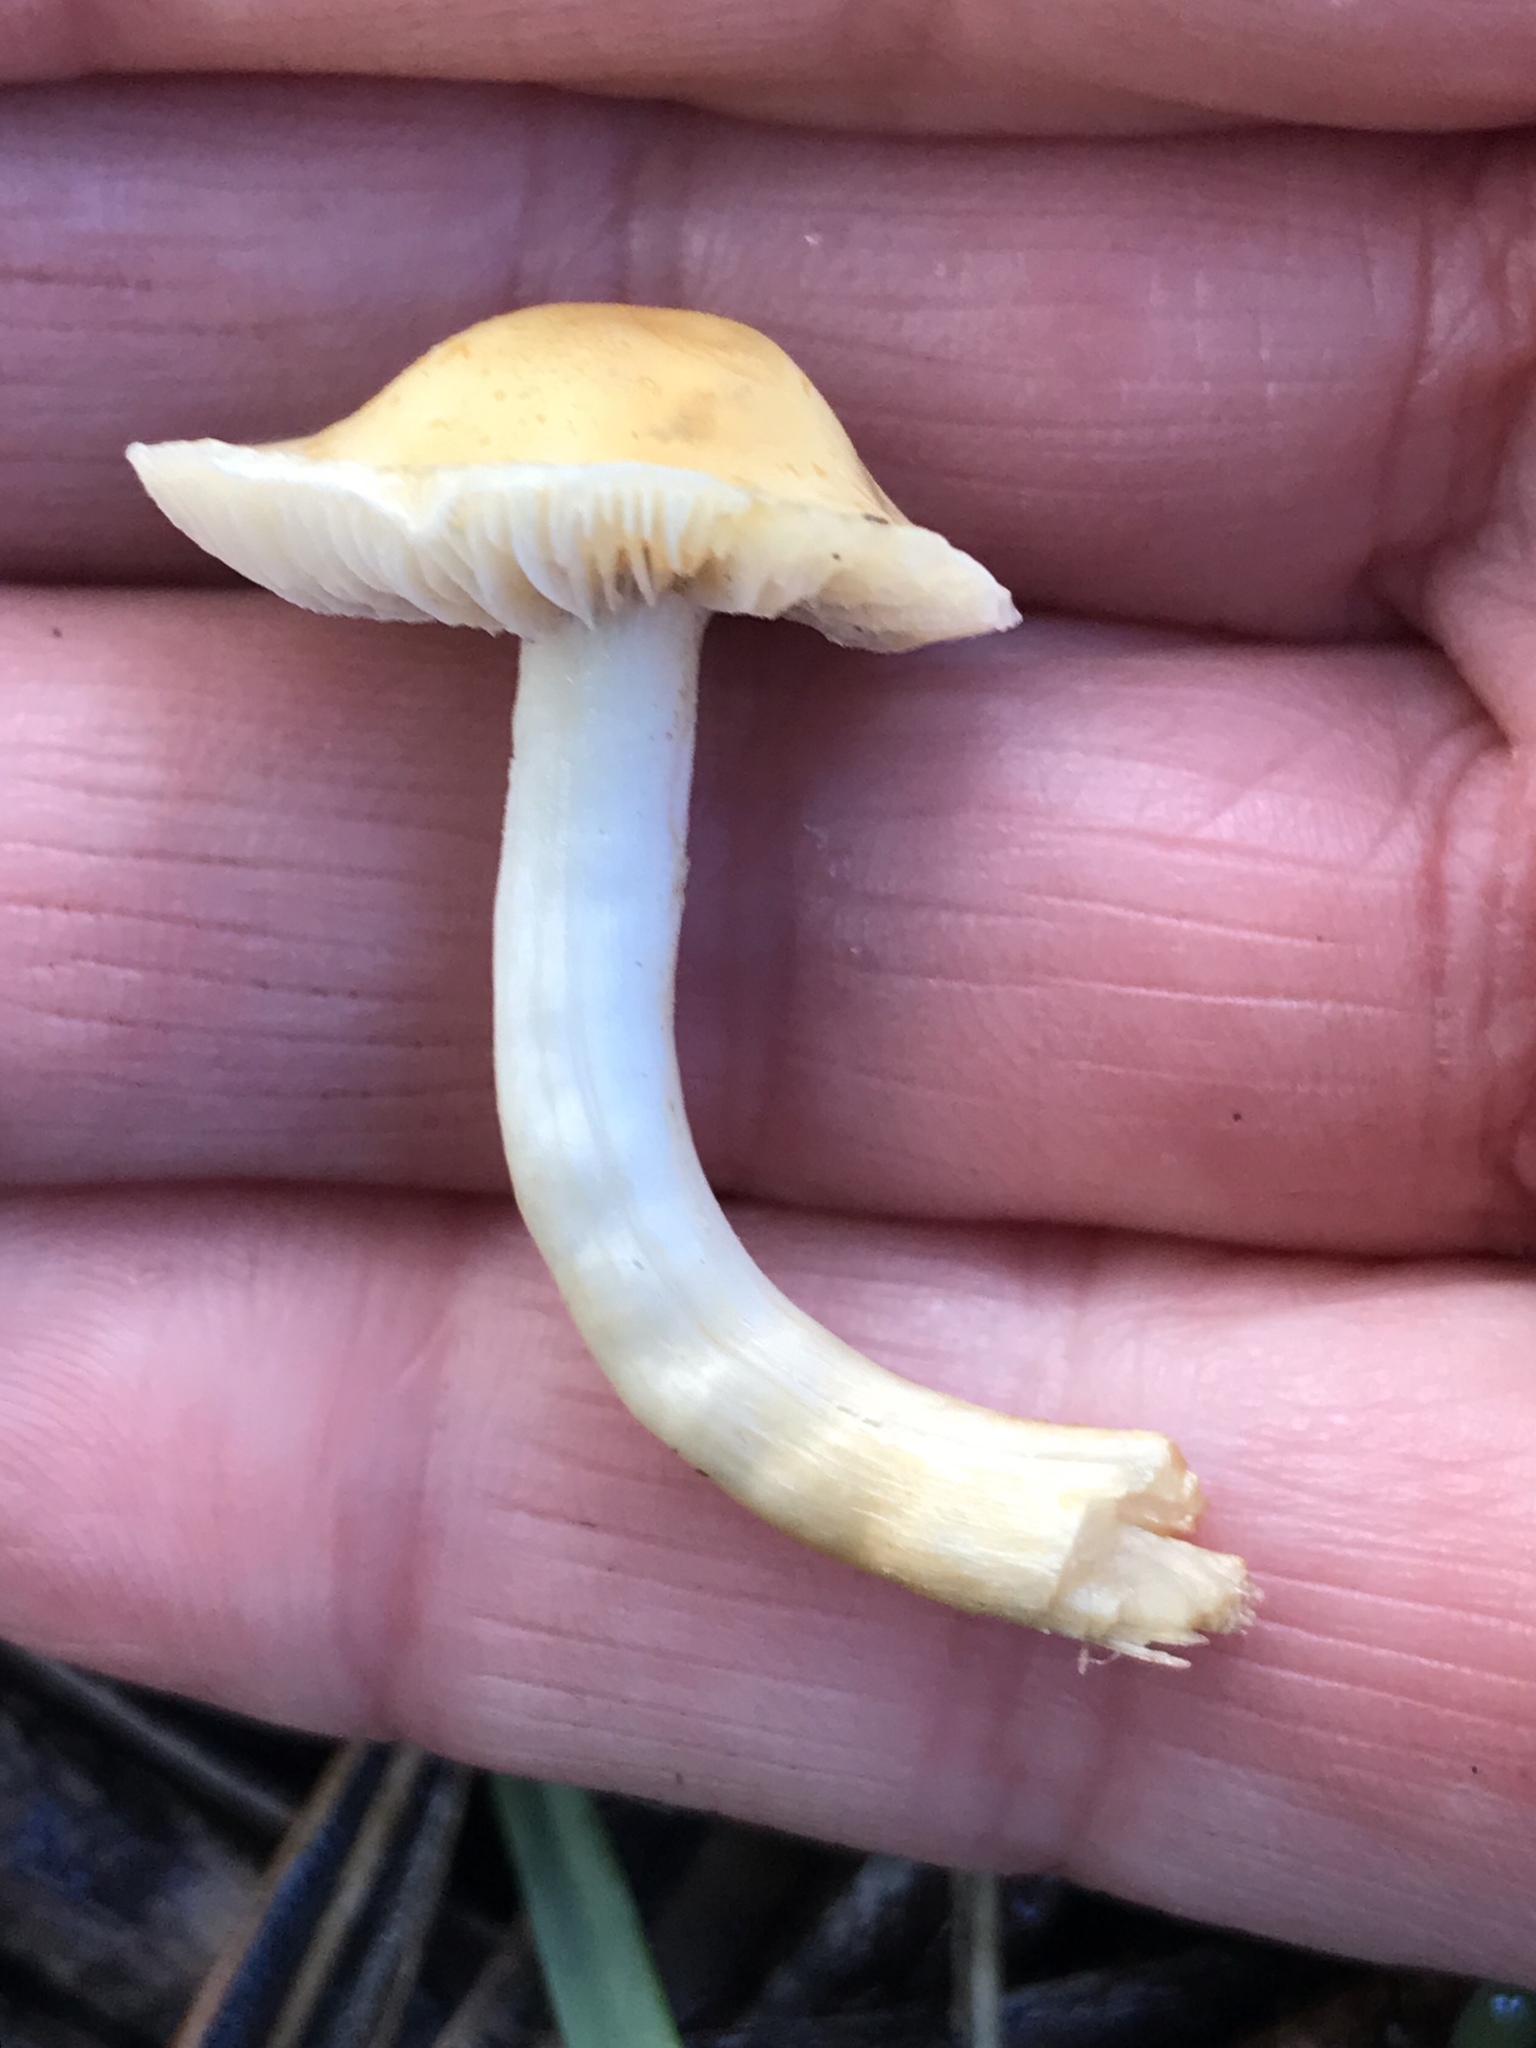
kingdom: Fungi
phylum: Basidiomycota
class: Agaricomycetes
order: Agaricales
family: Strophariaceae
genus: Leratiomyces
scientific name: Leratiomyces percevalii
